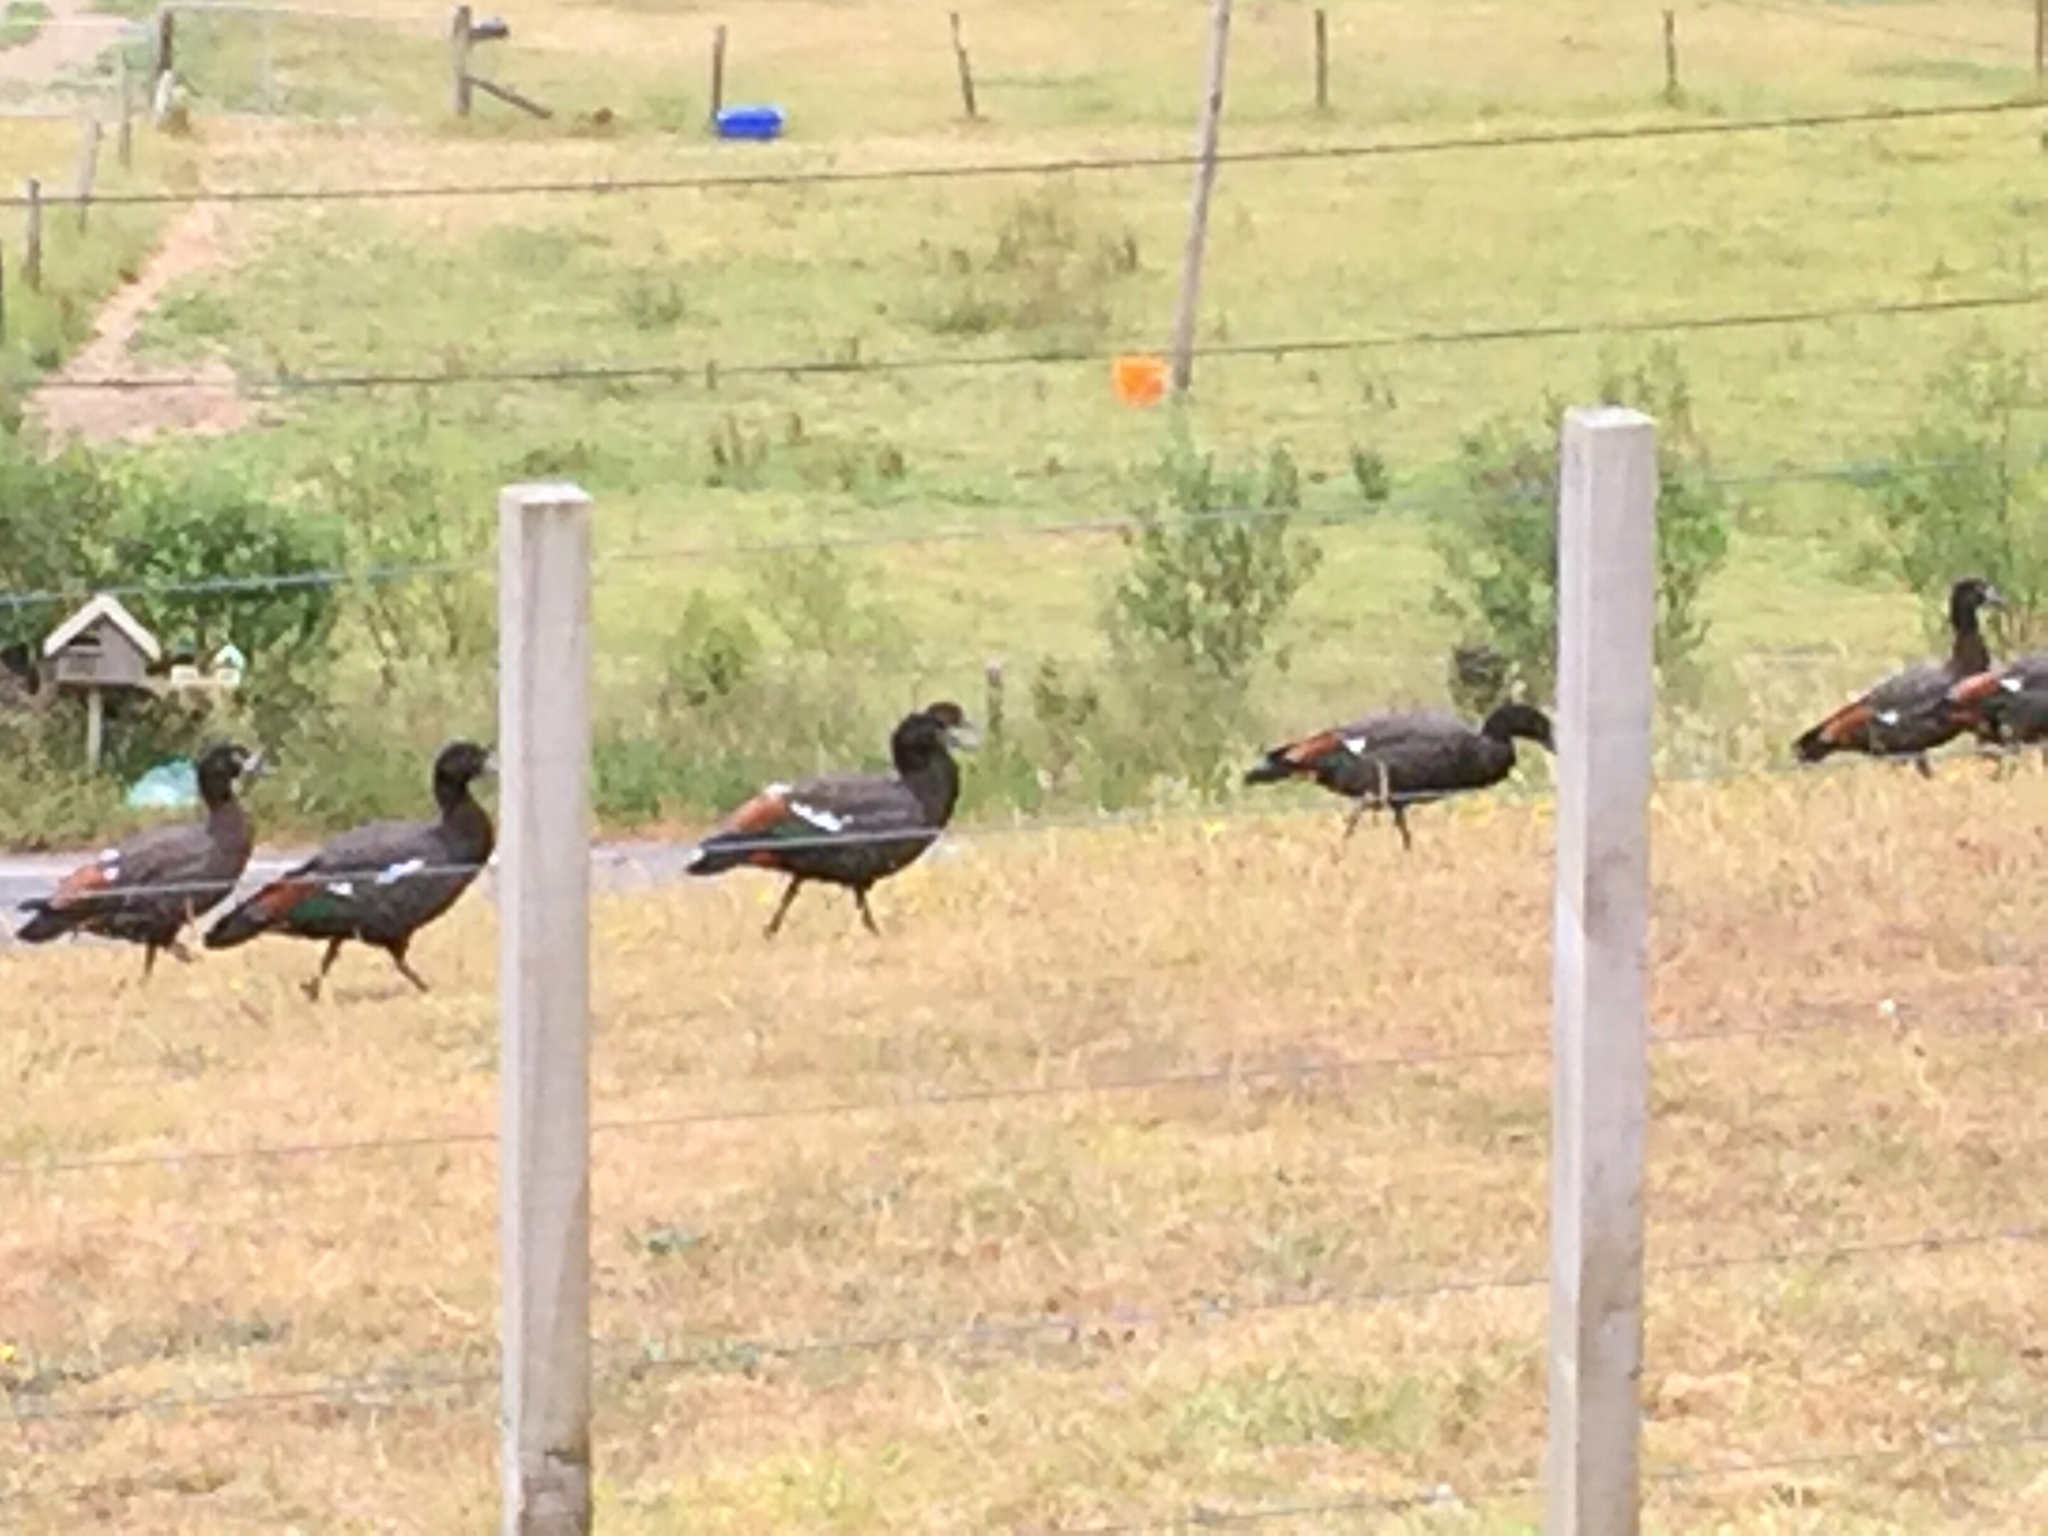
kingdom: Animalia
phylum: Chordata
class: Aves
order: Anseriformes
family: Anatidae
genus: Tadorna
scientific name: Tadorna variegata
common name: Paradise shelduck
